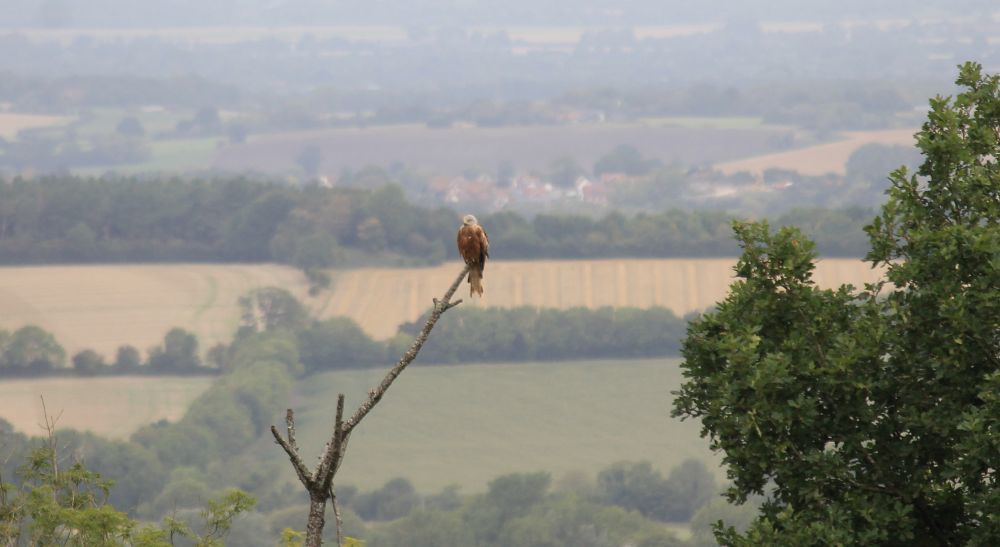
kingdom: Animalia
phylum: Chordata
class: Aves
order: Accipitriformes
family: Accipitridae
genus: Milvus
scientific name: Milvus milvus
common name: Red kite
